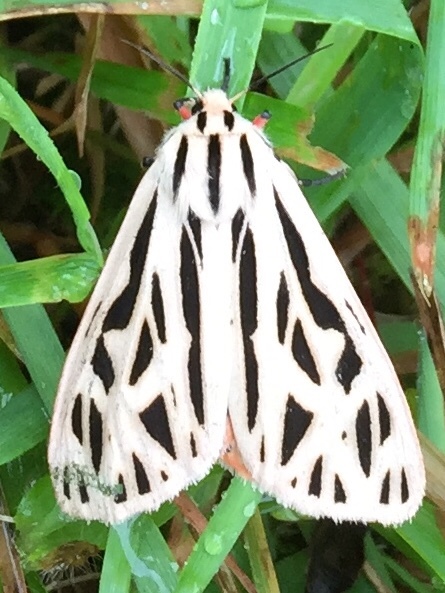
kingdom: Animalia
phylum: Arthropoda
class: Insecta
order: Lepidoptera
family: Erebidae
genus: Apantesis
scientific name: Apantesis arge
